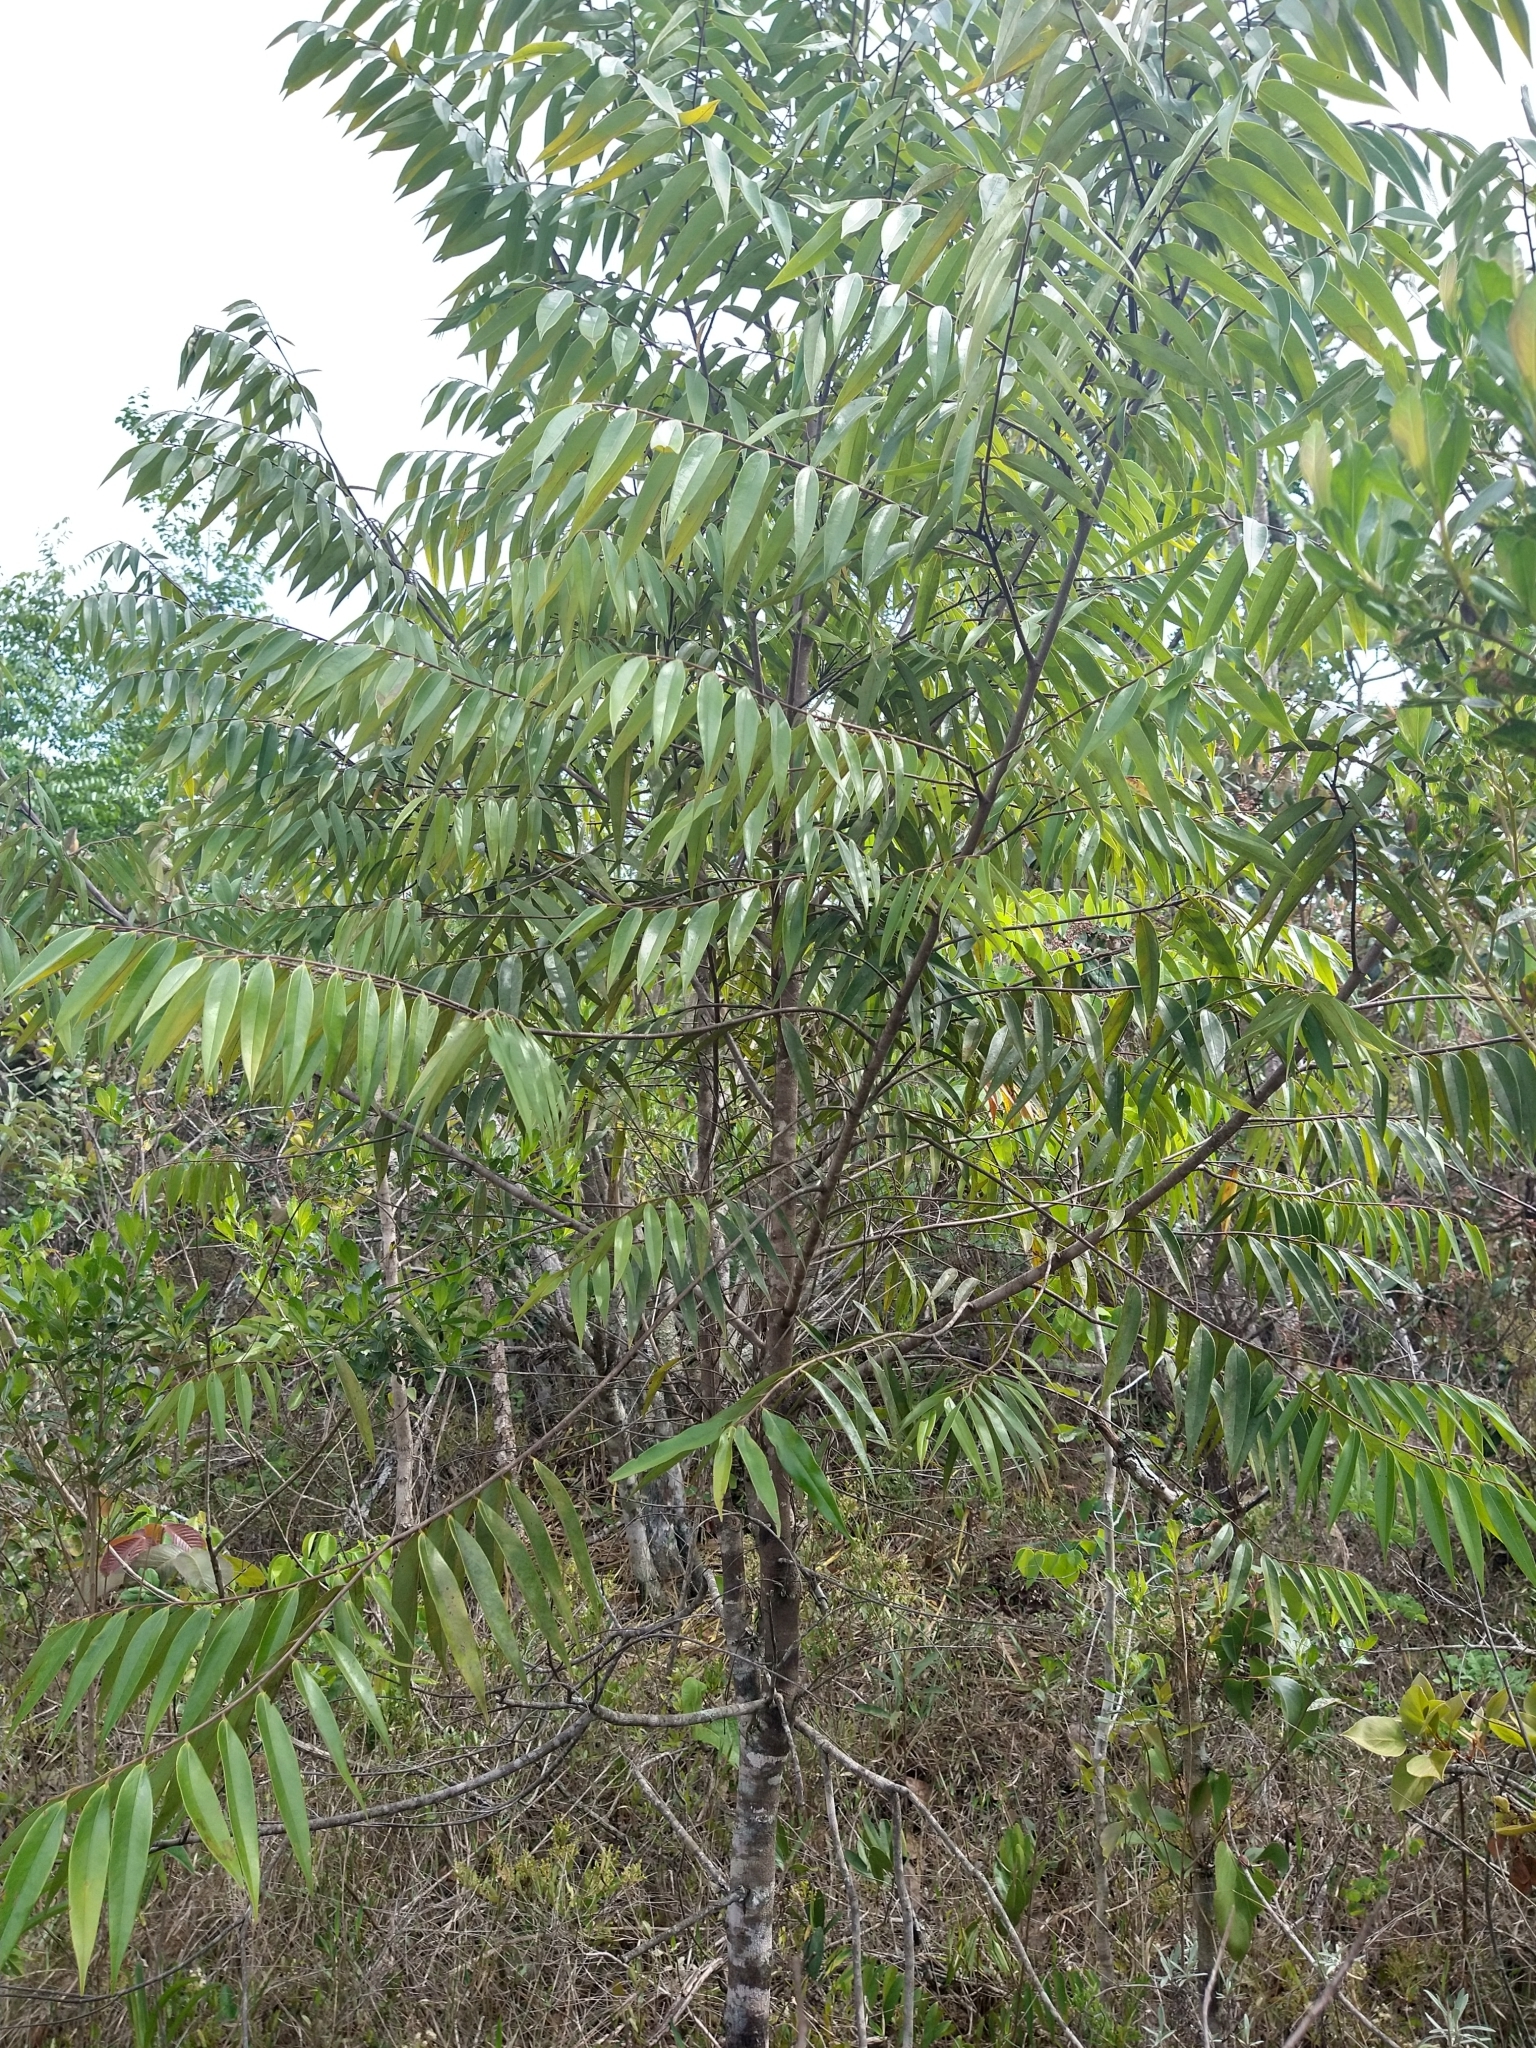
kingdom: Plantae
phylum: Tracheophyta
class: Magnoliopsida
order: Magnoliales
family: Annonaceae
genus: Xylopia
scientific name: Xylopia aromatica
